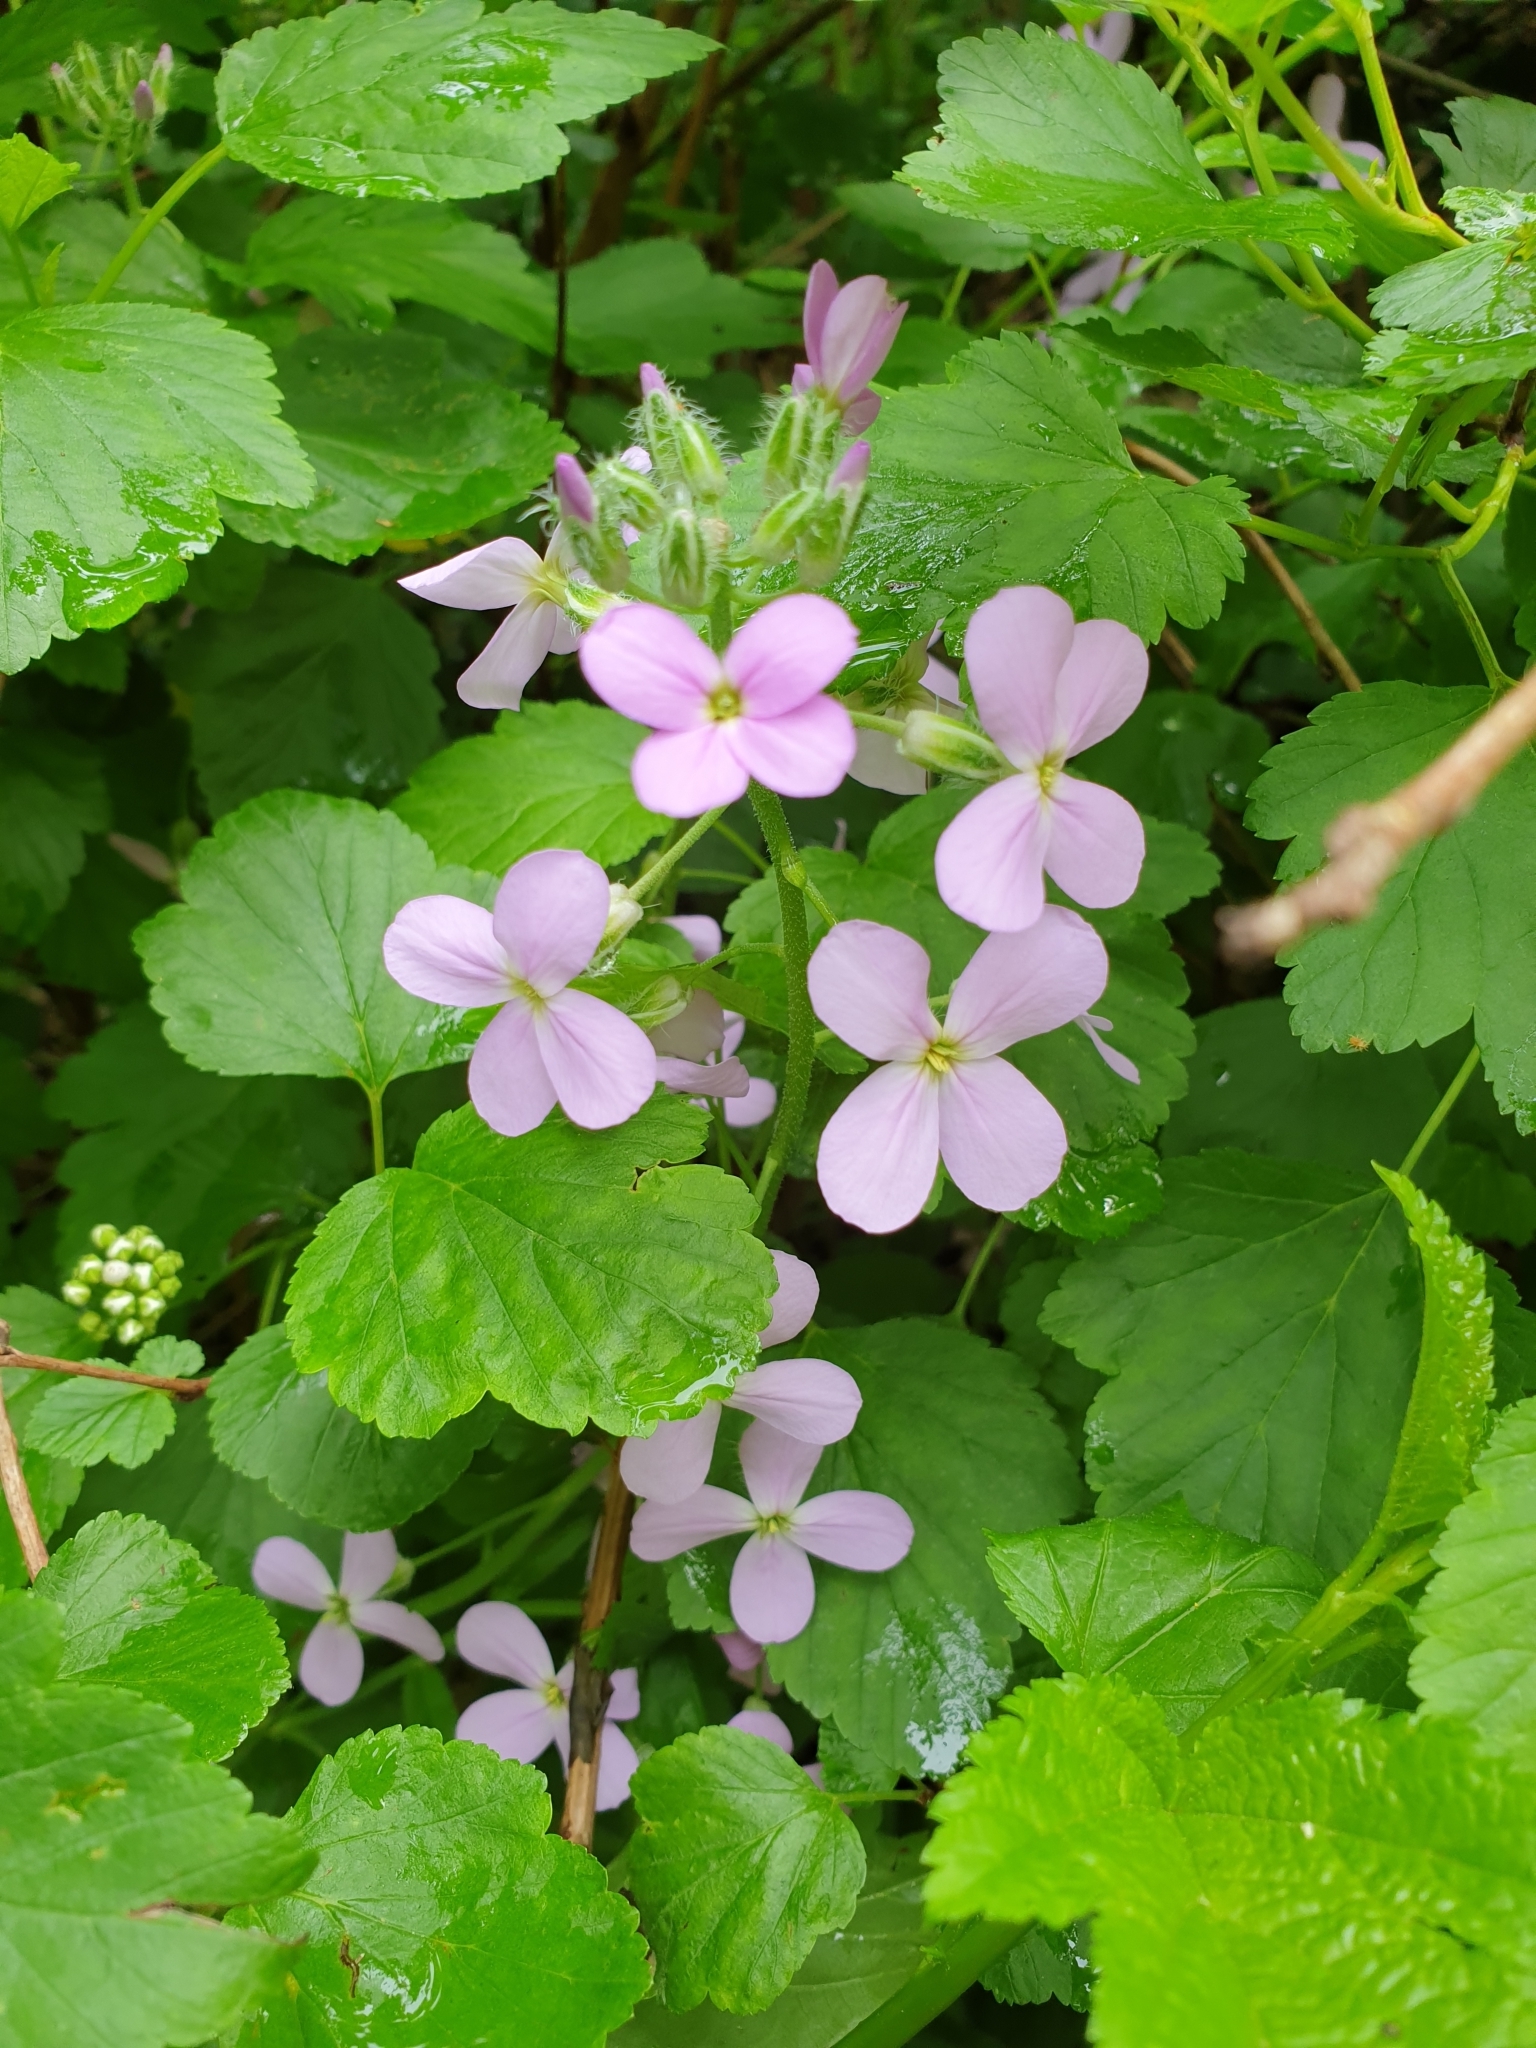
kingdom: Plantae
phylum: Tracheophyta
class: Magnoliopsida
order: Brassicales
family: Brassicaceae
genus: Hesperis
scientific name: Hesperis matronalis
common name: Dame's-violet
